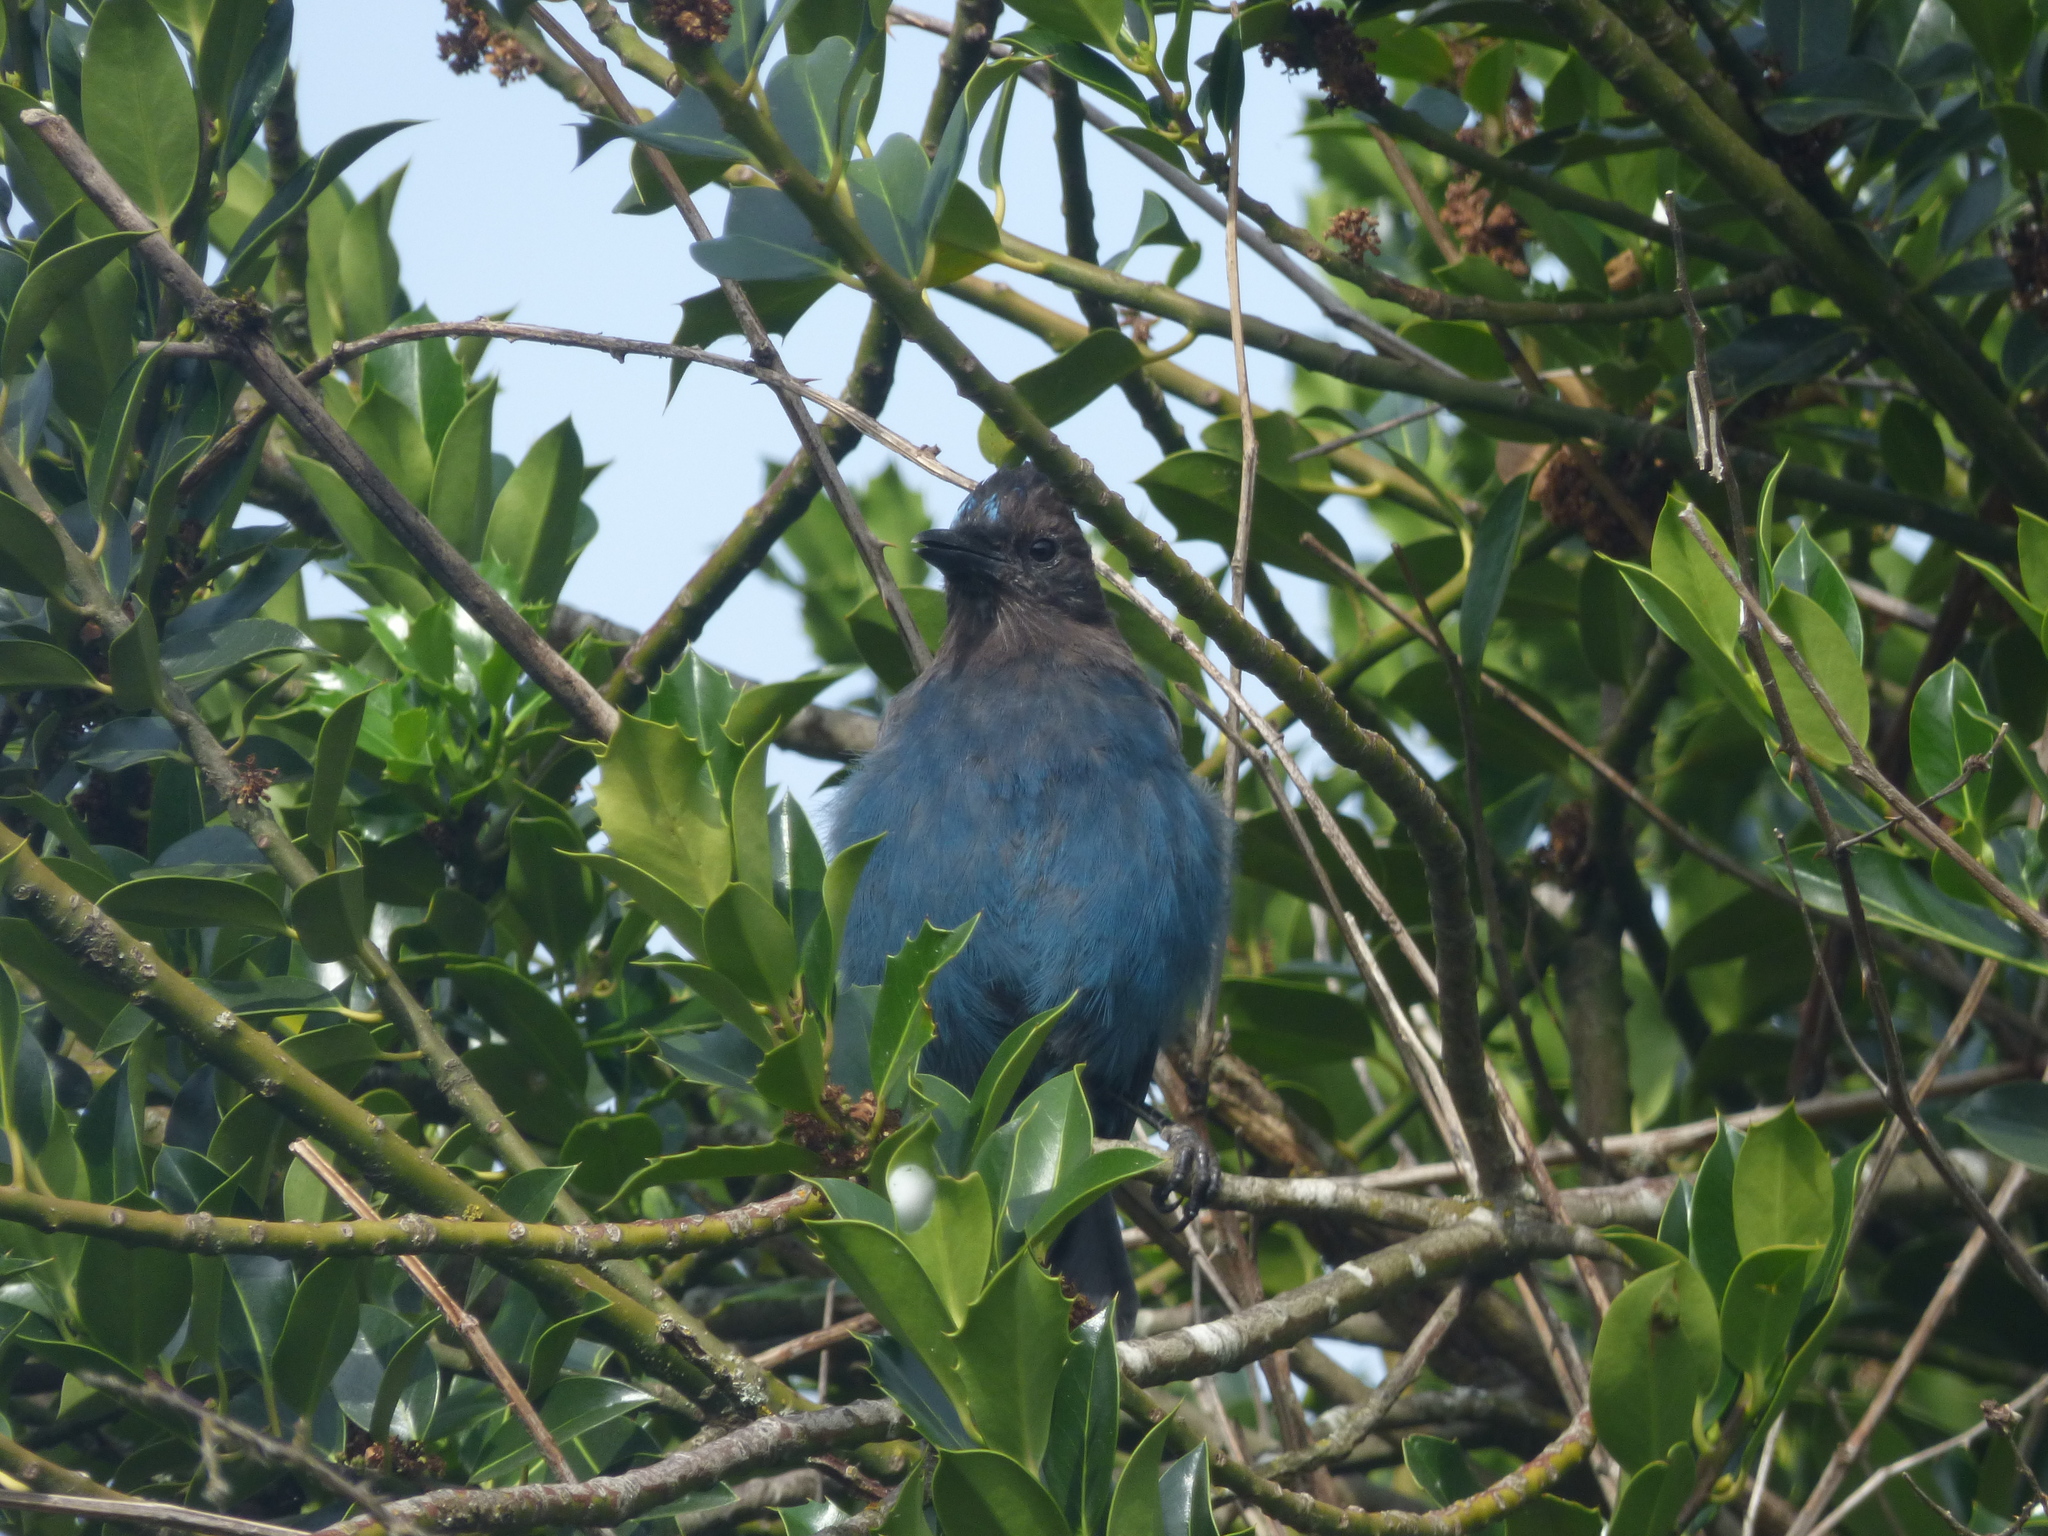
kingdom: Animalia
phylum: Chordata
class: Aves
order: Passeriformes
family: Corvidae
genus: Cyanocitta
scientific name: Cyanocitta stelleri
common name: Steller's jay
